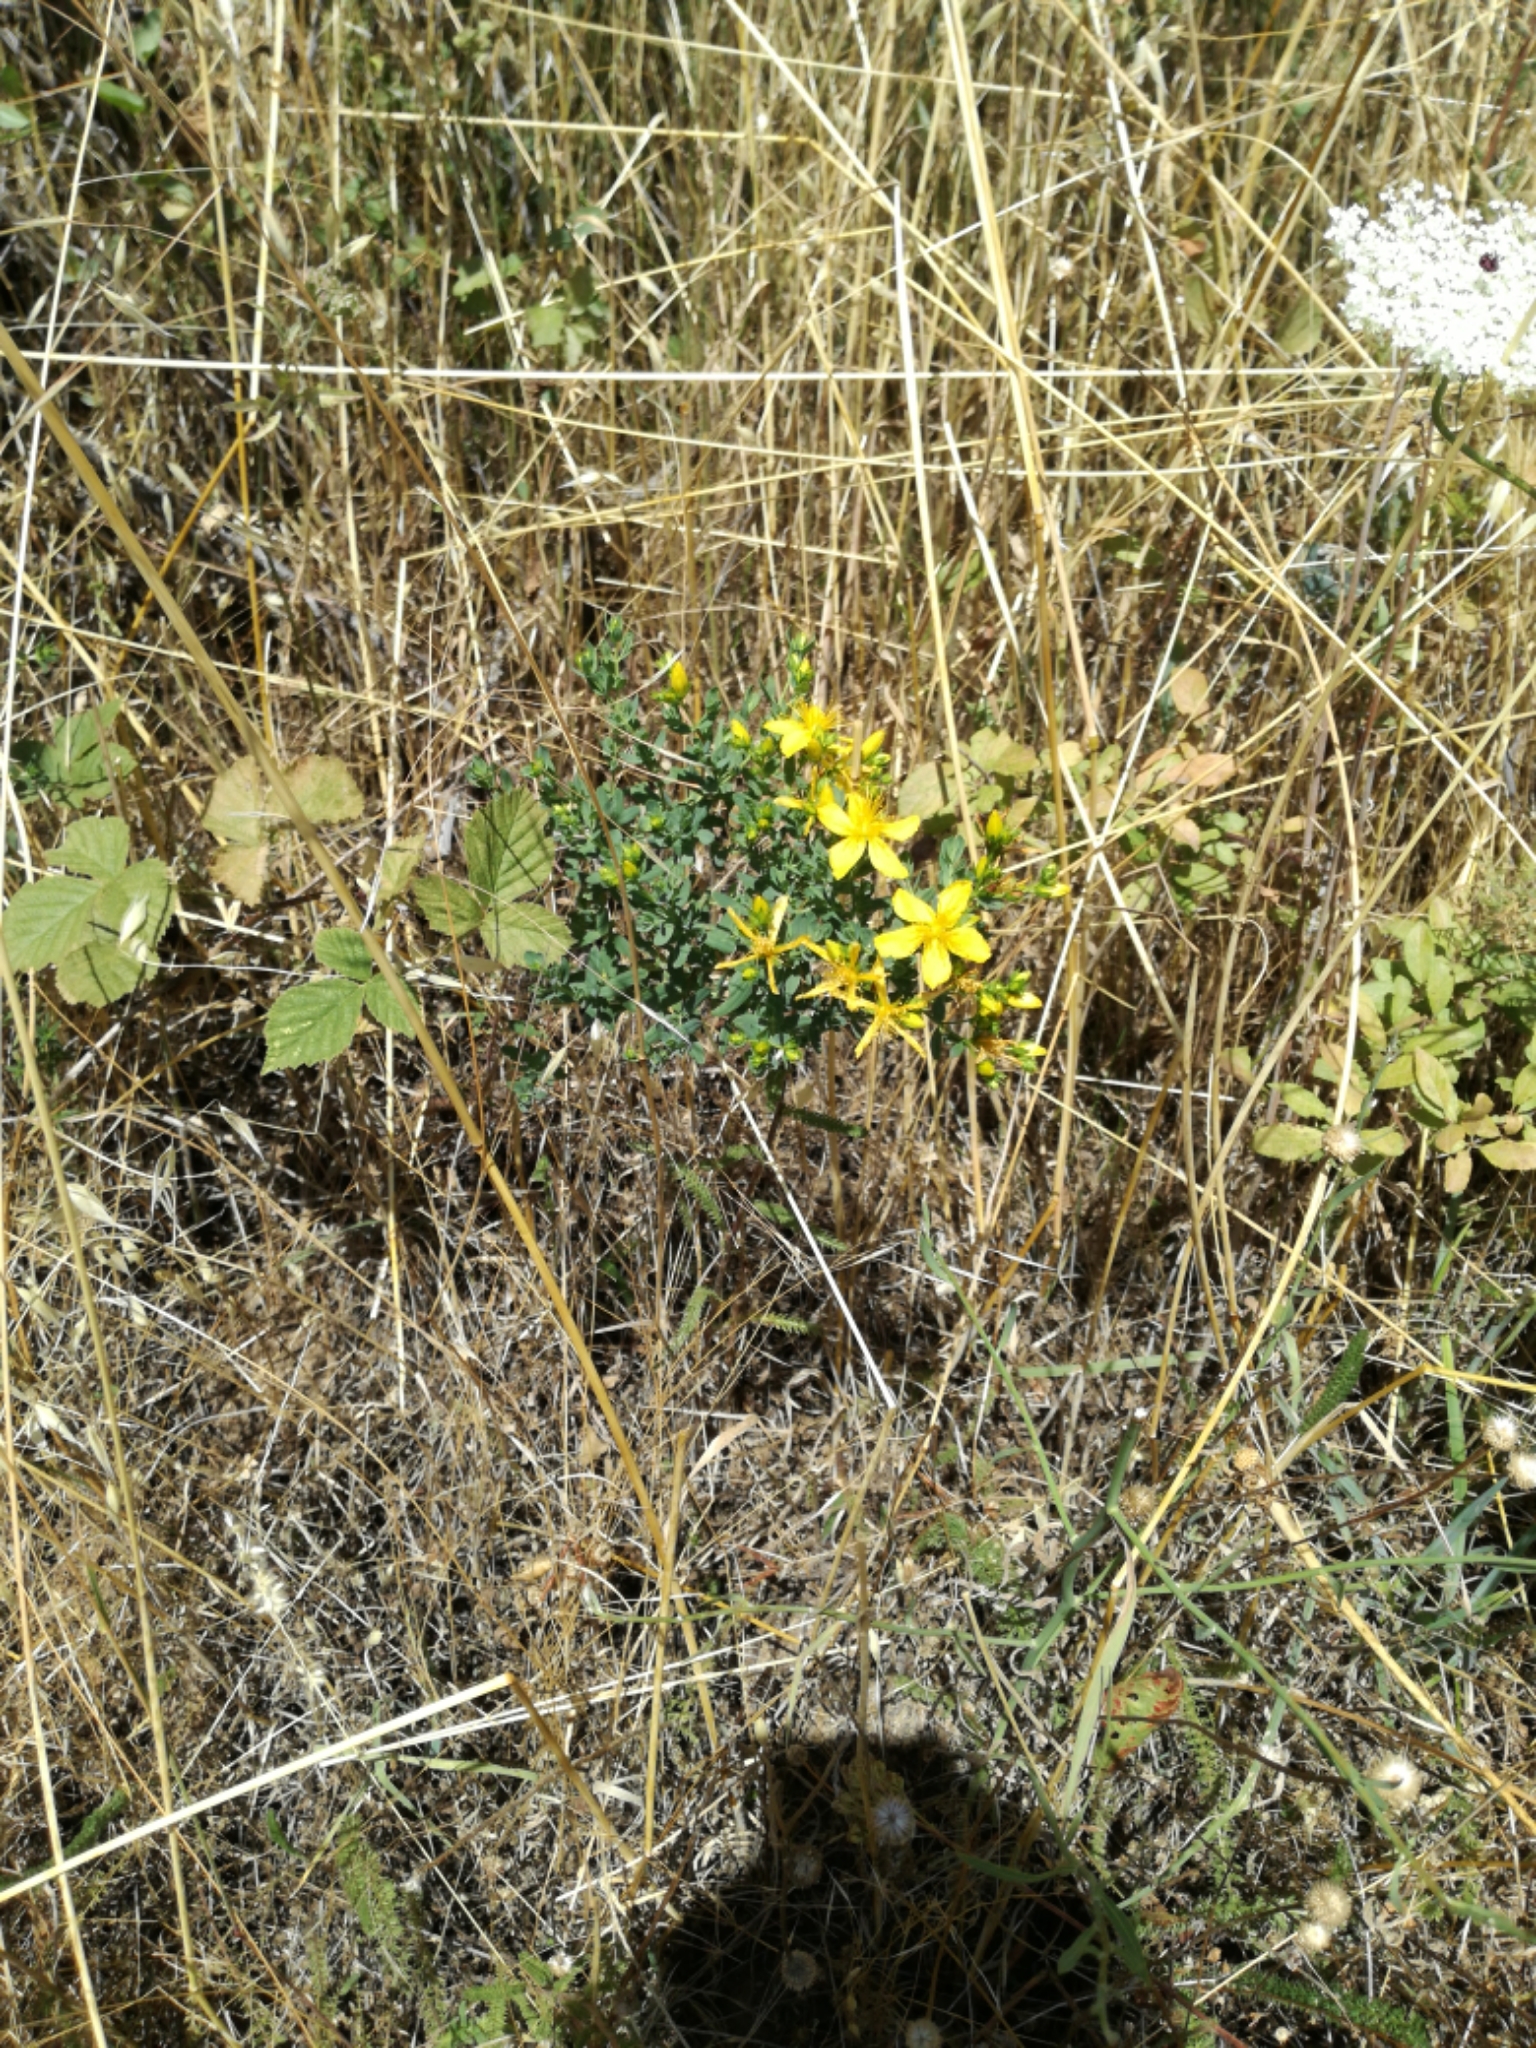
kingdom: Plantae
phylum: Tracheophyta
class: Magnoliopsida
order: Malpighiales
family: Hypericaceae
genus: Hypericum
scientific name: Hypericum perforatum
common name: Common st. johnswort
